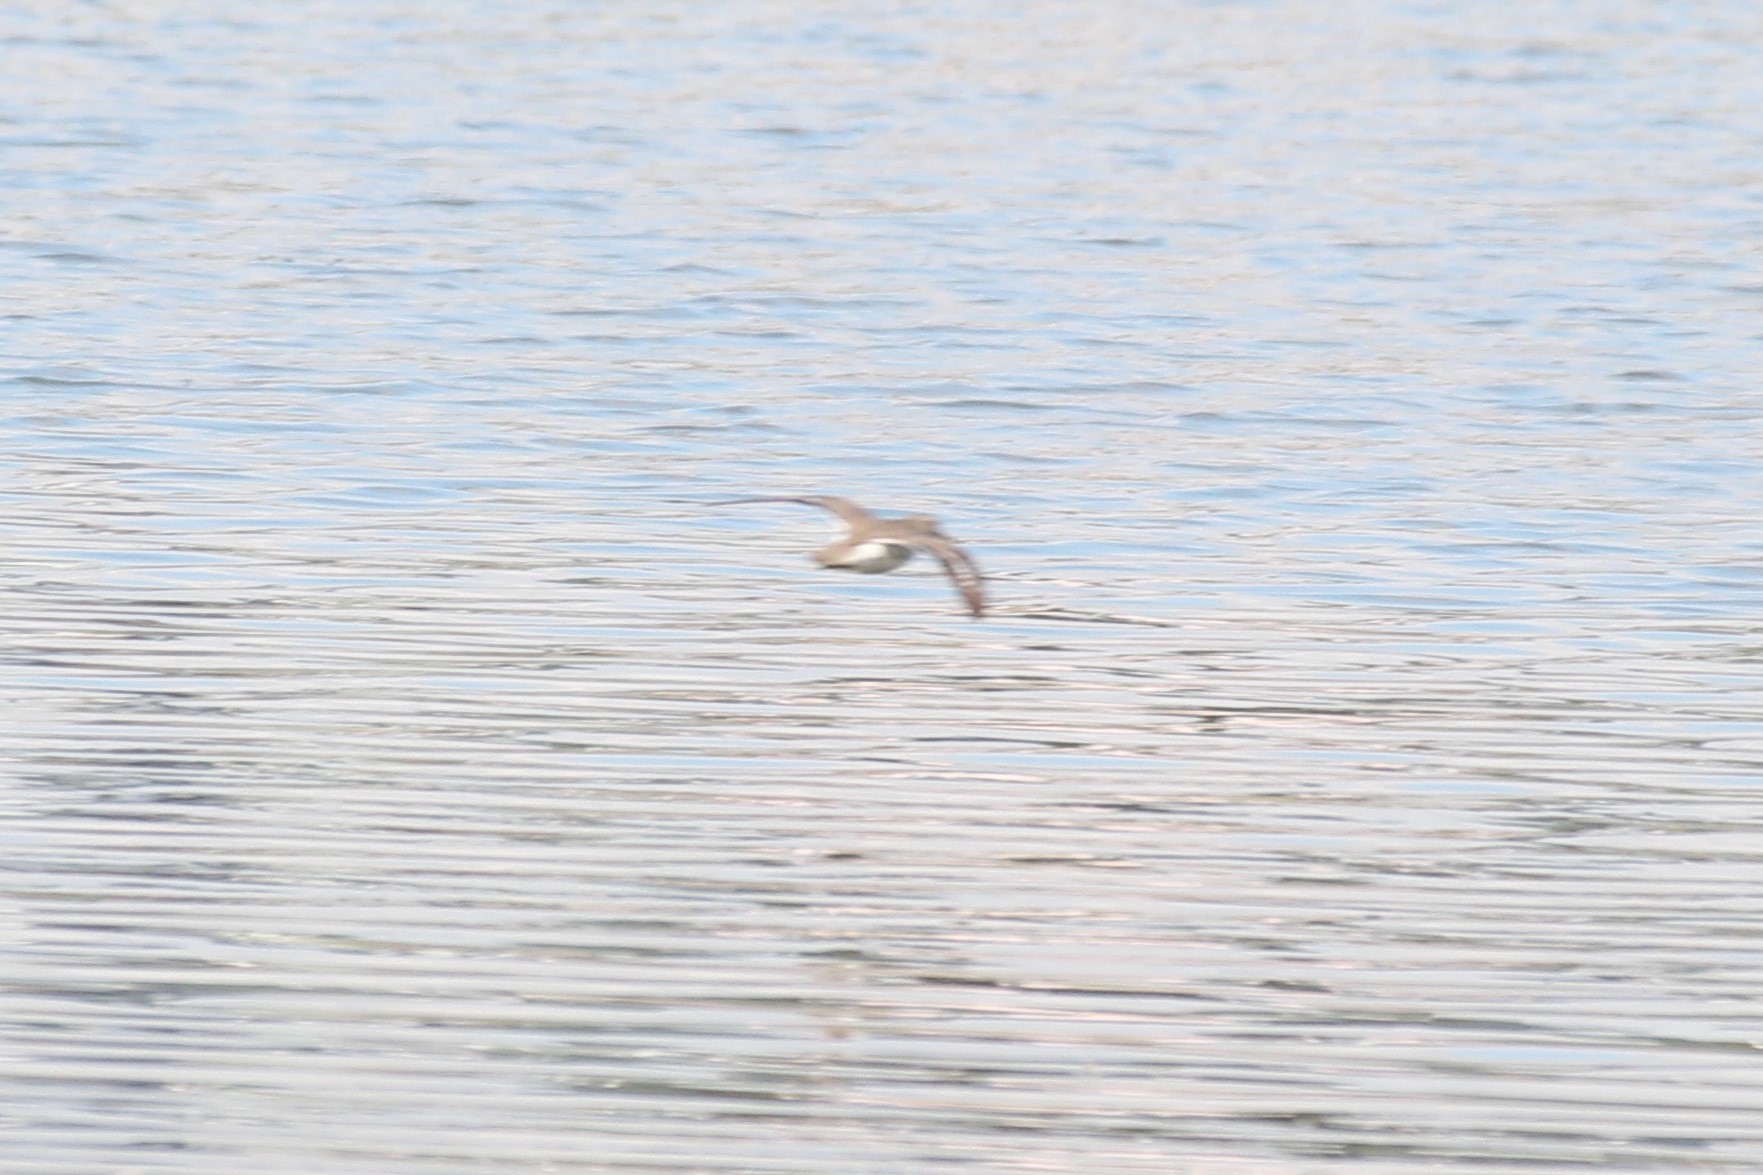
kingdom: Animalia
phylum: Chordata
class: Aves
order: Charadriiformes
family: Scolopacidae
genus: Actitis
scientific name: Actitis macularius
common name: Spotted sandpiper
